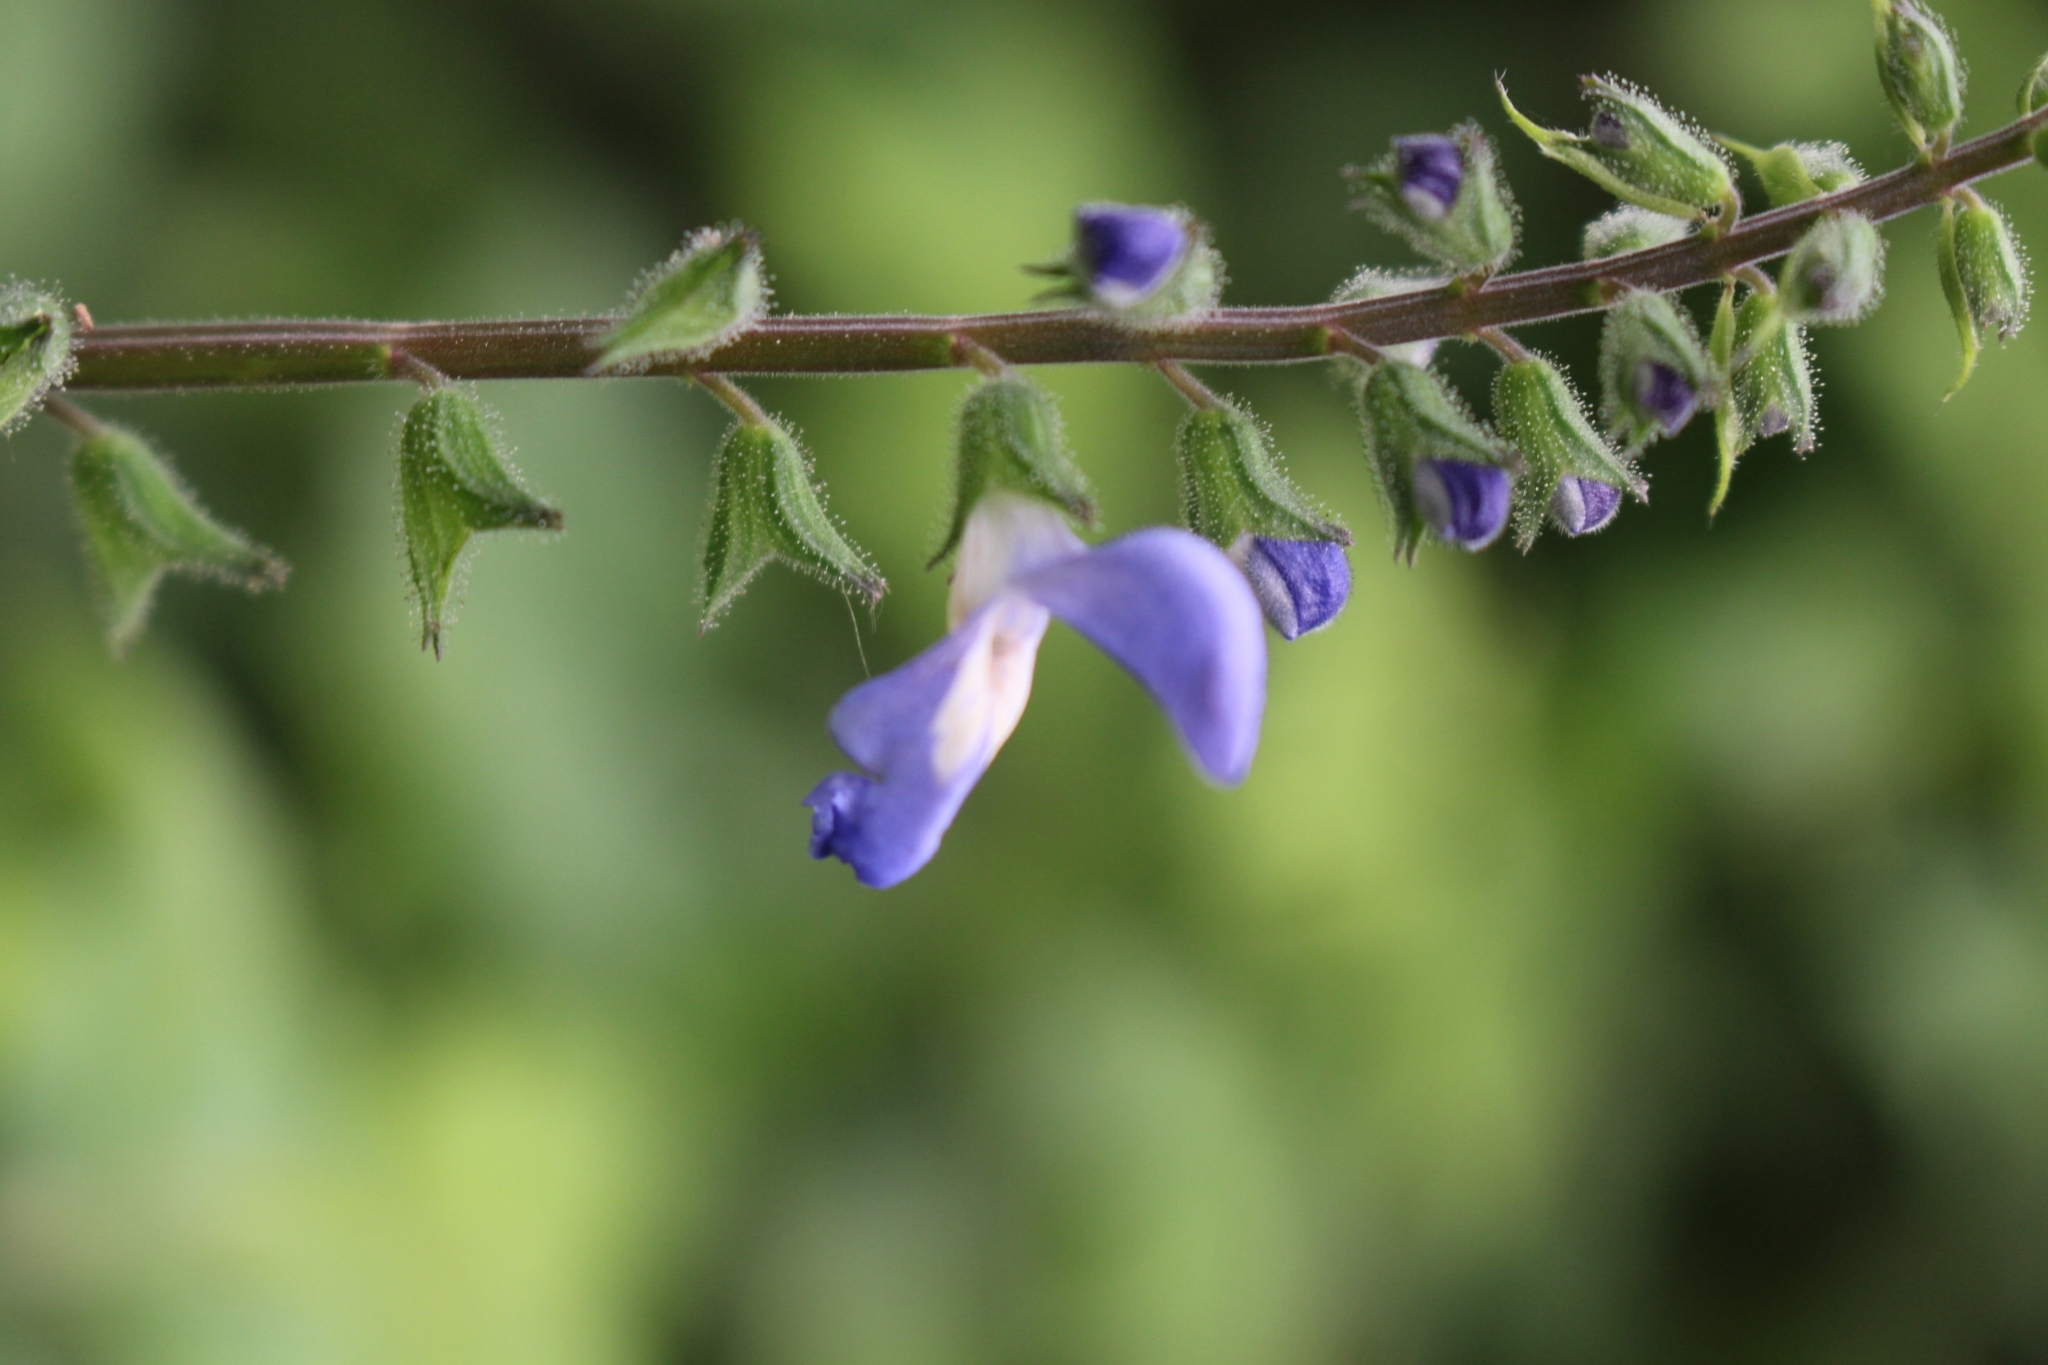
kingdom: Plantae
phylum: Tracheophyta
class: Magnoliopsida
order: Lamiales
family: Lamiaceae
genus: Salvia
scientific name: Salvia costaricensis
